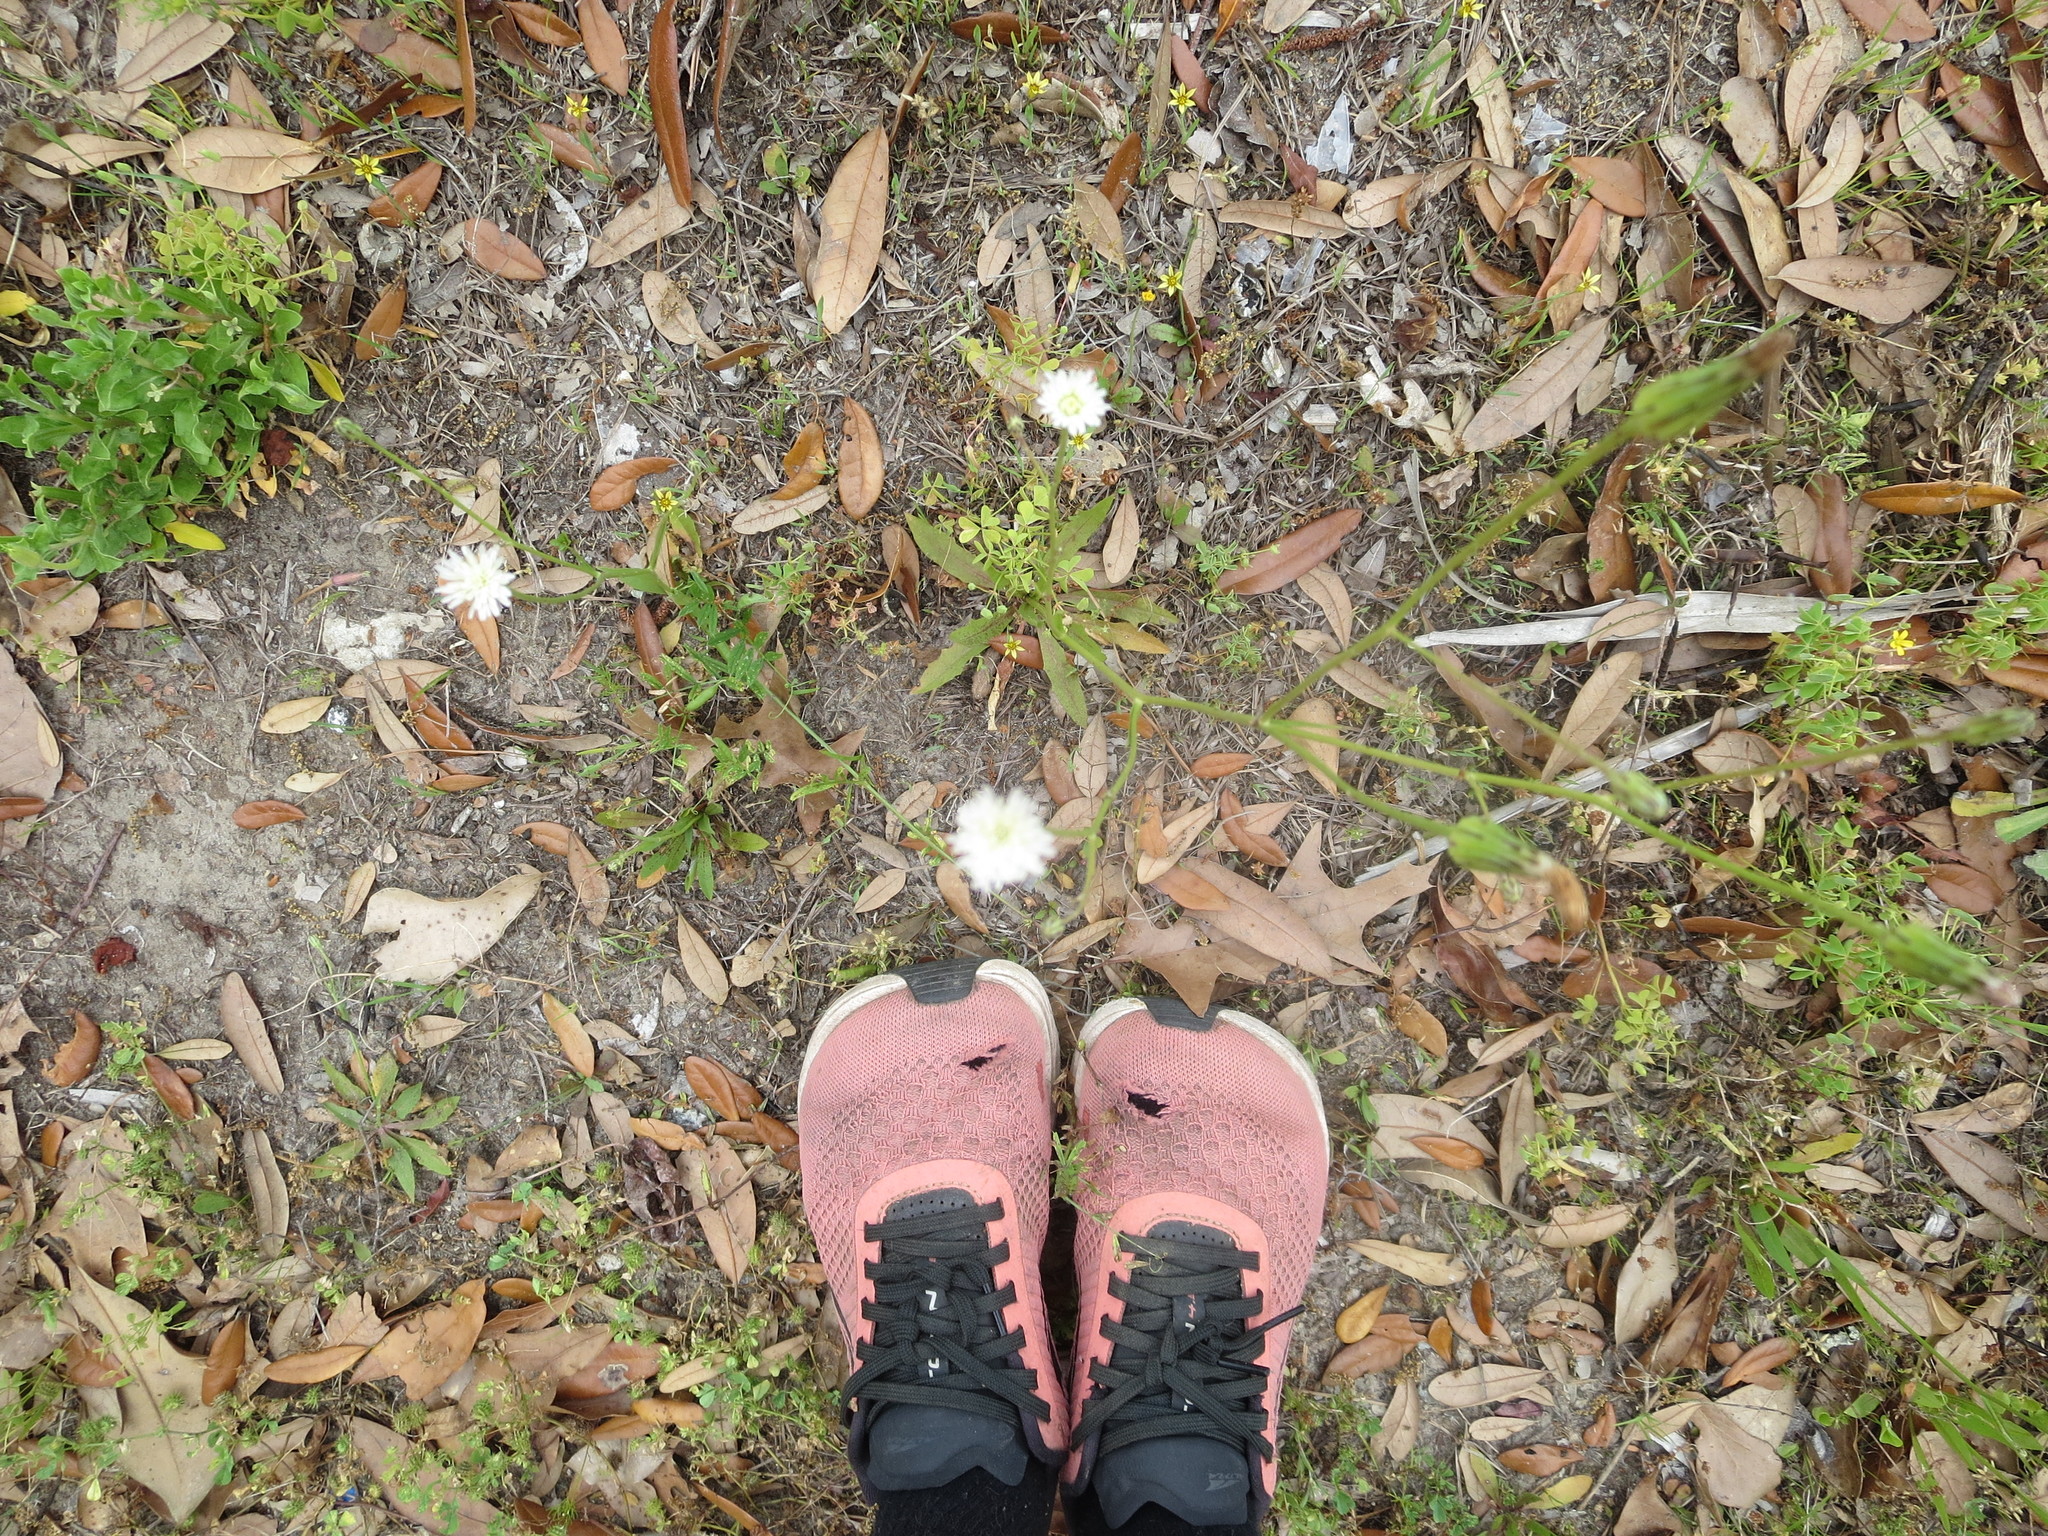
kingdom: Plantae
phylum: Tracheophyta
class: Magnoliopsida
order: Asterales
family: Asteraceae
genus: Hypochaeris
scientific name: Hypochaeris albiflora
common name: White flatweed
